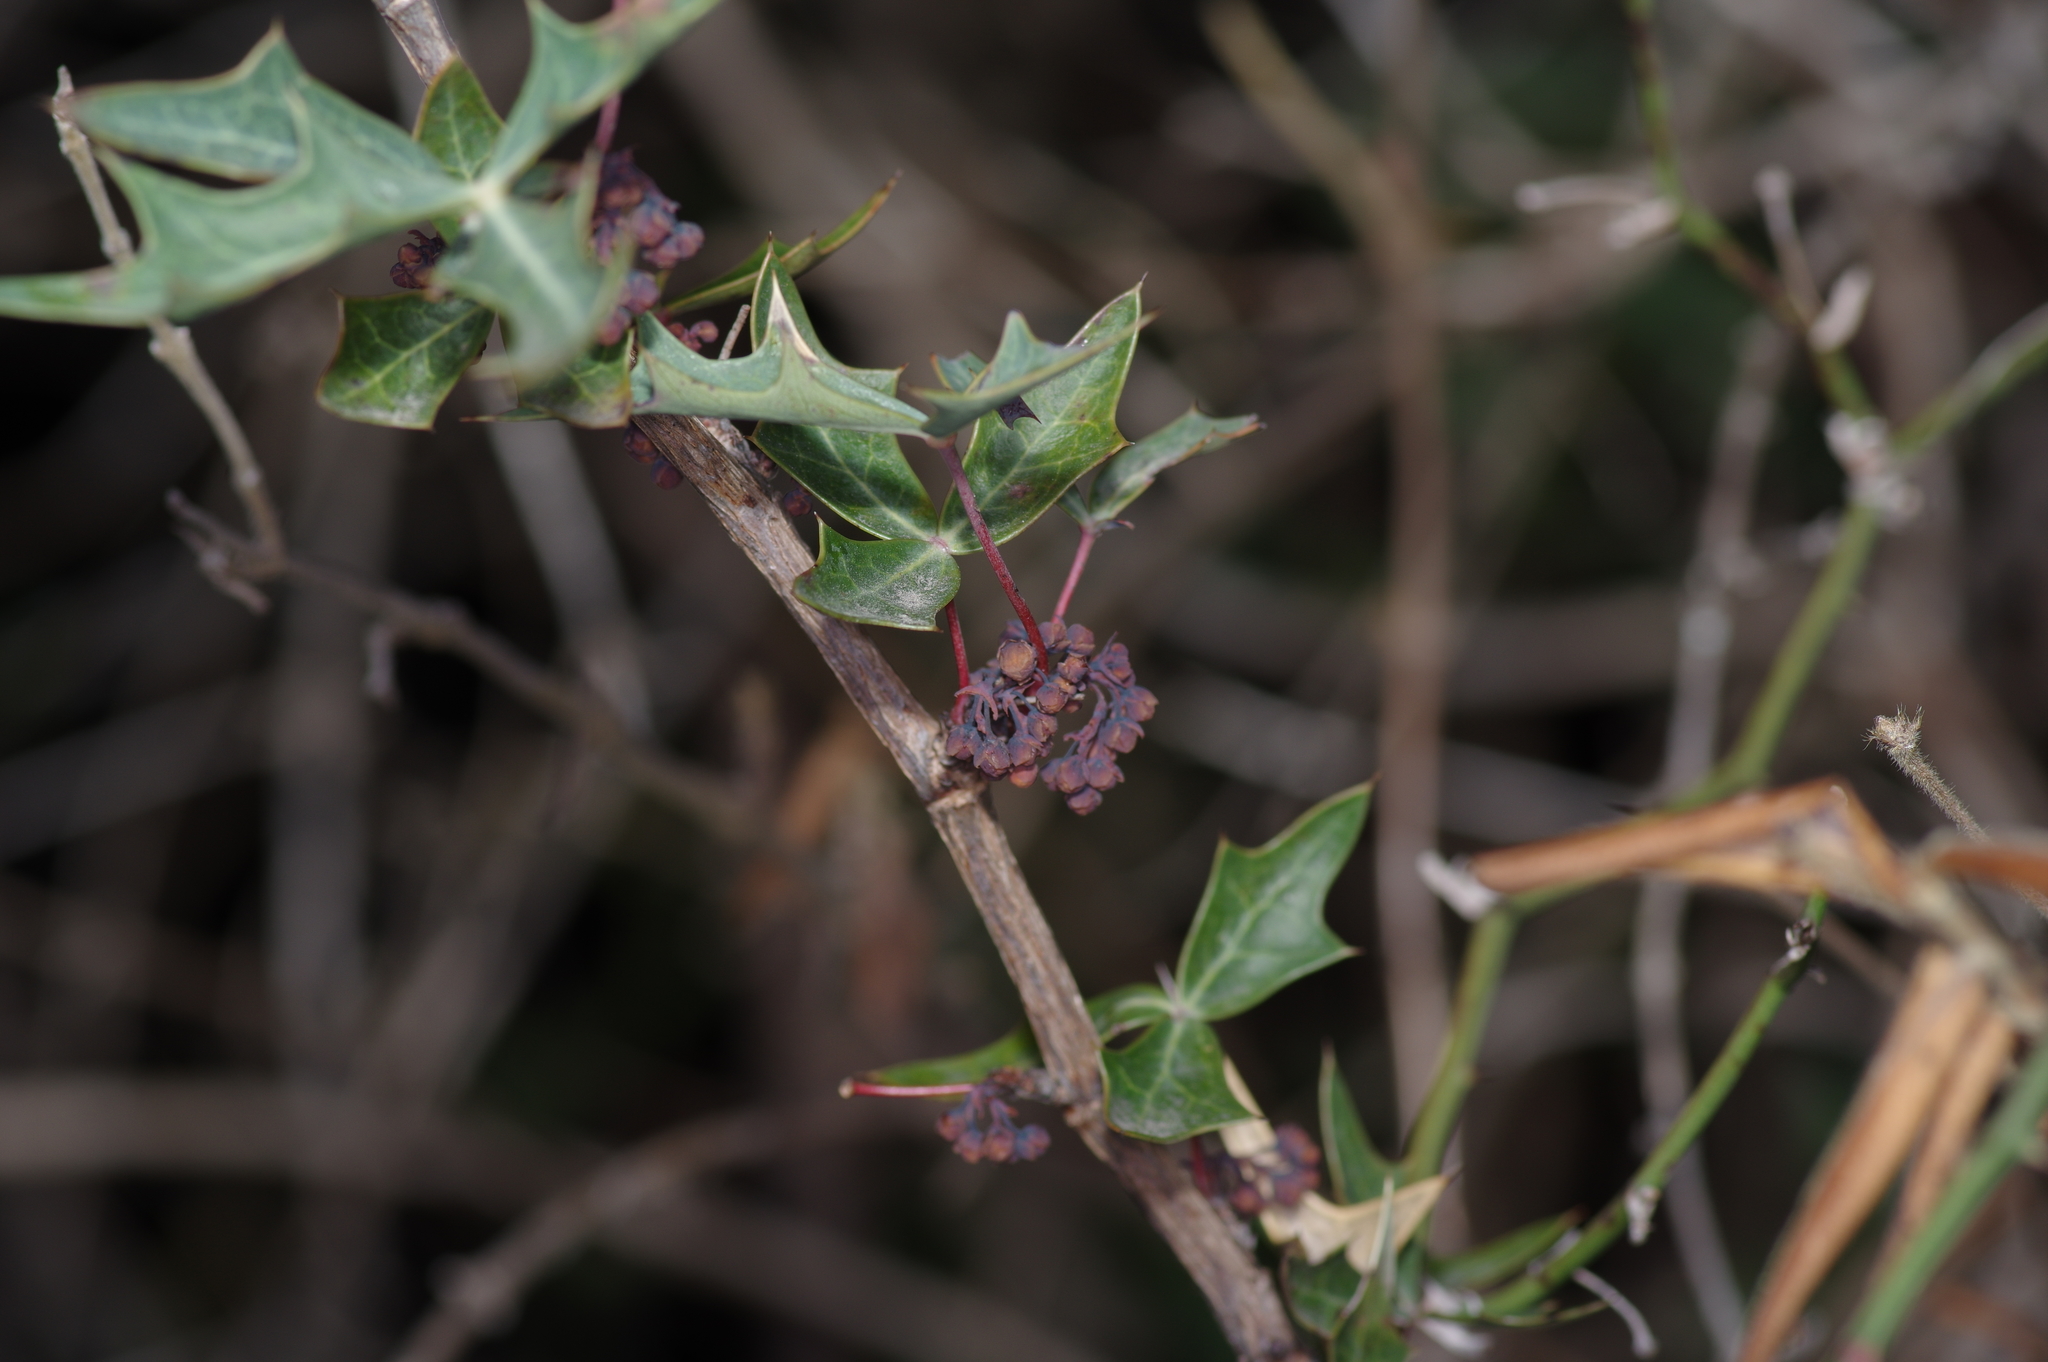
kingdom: Plantae
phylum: Tracheophyta
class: Magnoliopsida
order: Ranunculales
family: Berberidaceae
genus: Alloberberis
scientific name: Alloberberis trifoliolata
